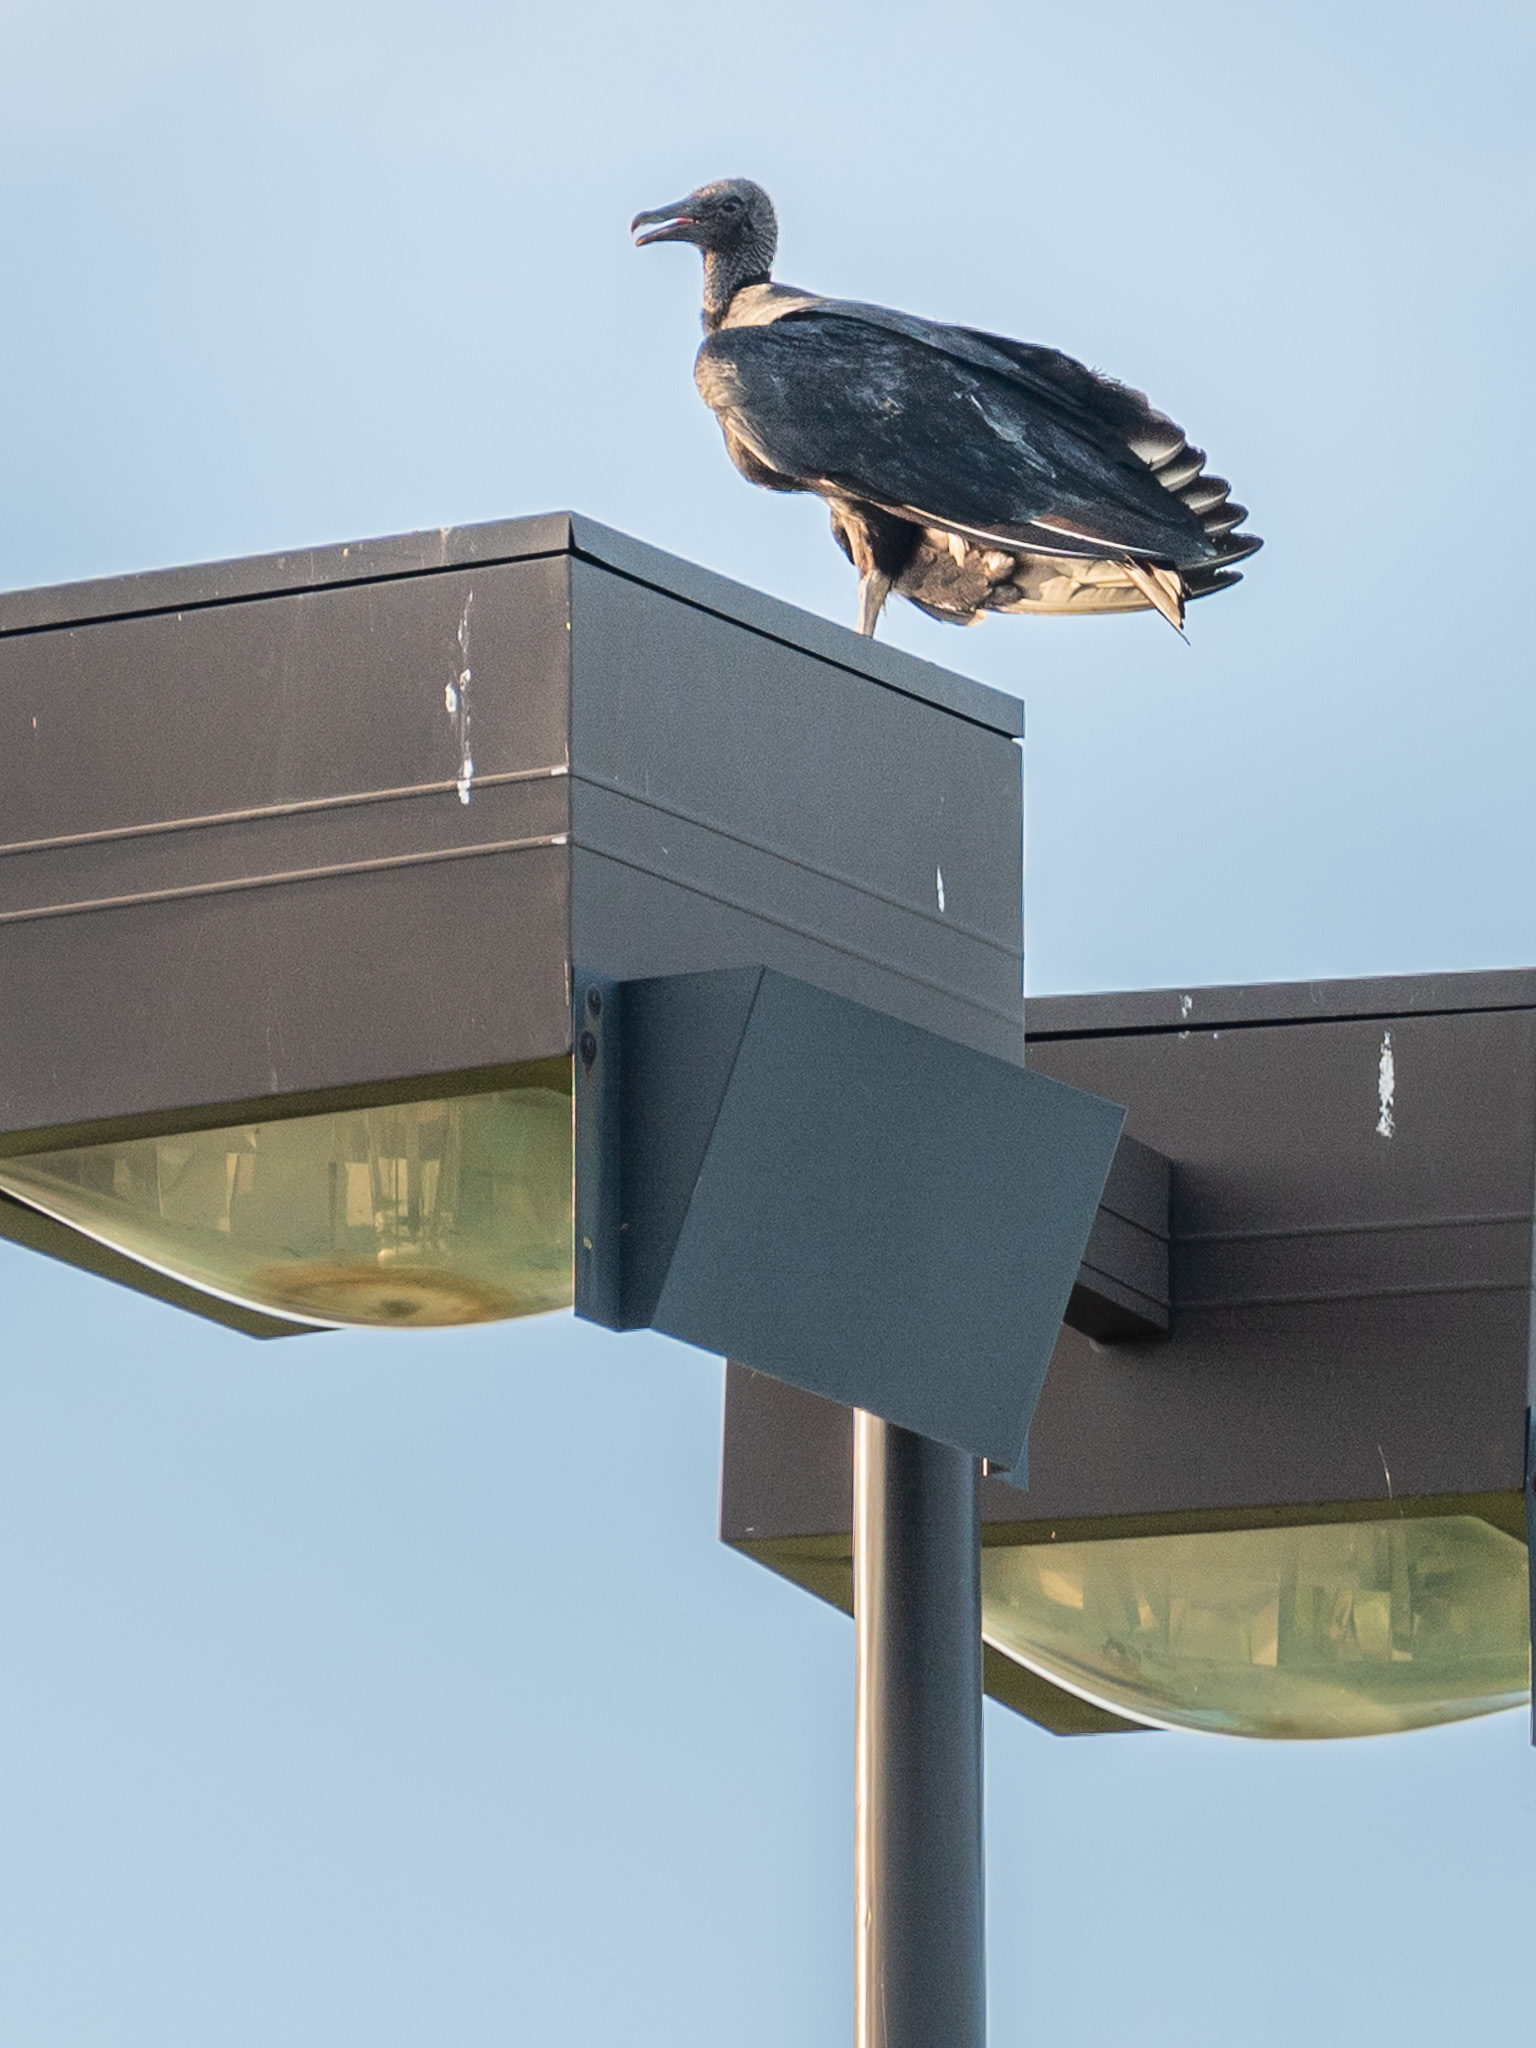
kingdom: Animalia
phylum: Chordata
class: Aves
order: Accipitriformes
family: Cathartidae
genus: Coragyps
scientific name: Coragyps atratus
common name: Black vulture
